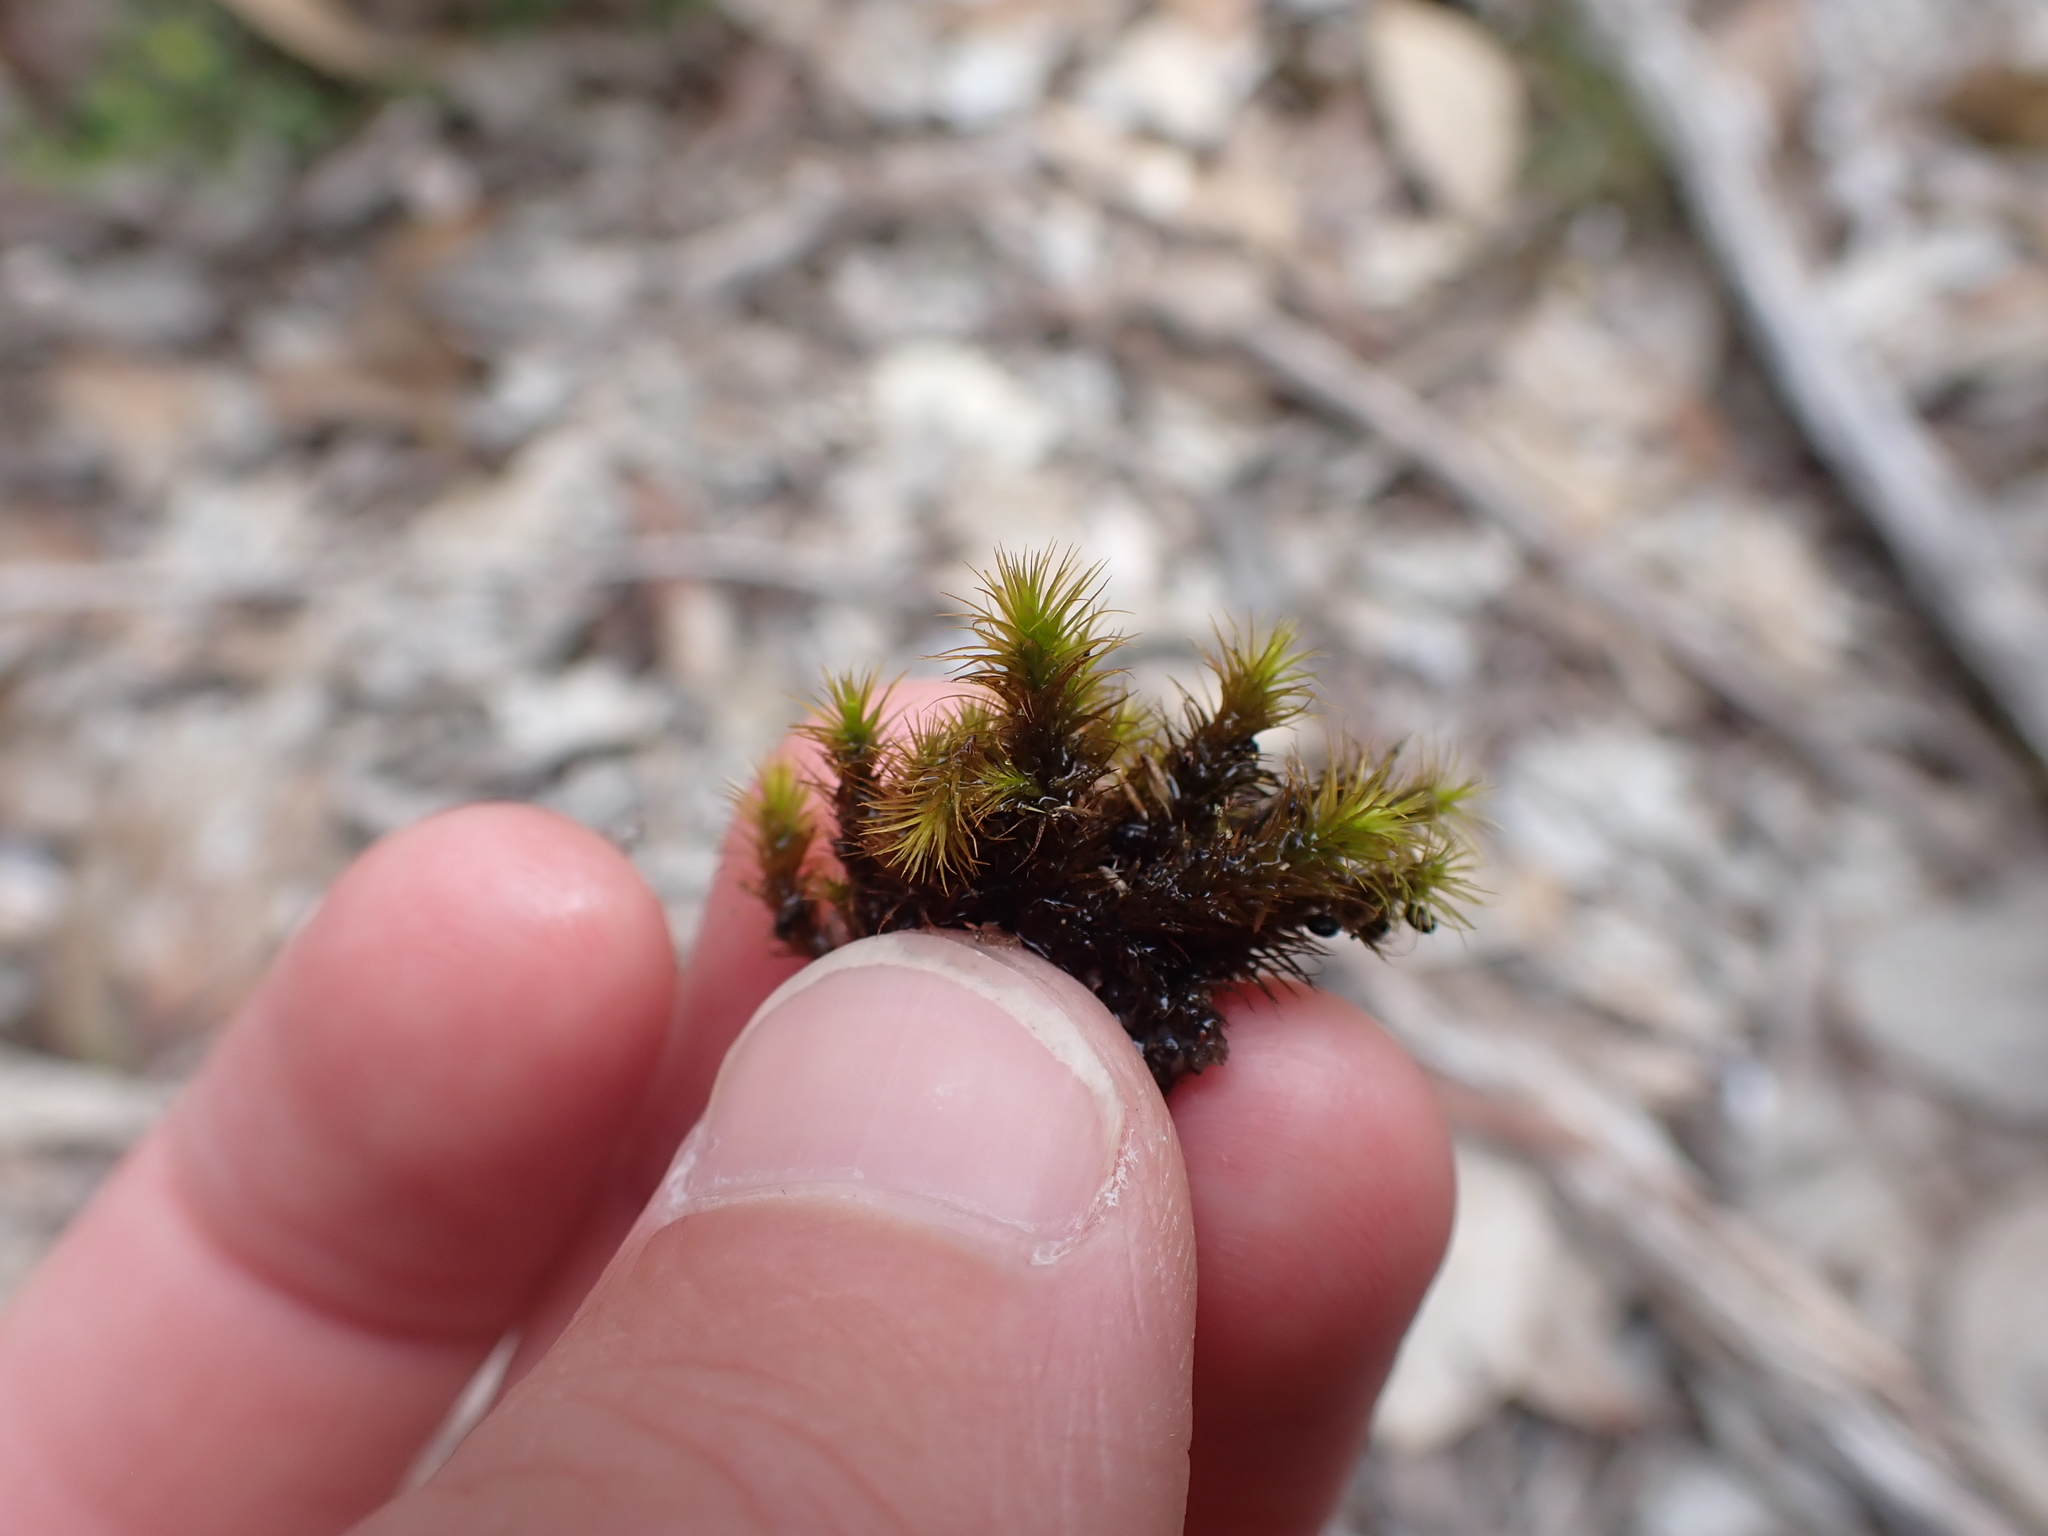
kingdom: Plantae
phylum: Bryophyta
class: Bryopsida
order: Bartramiales
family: Bartramiaceae
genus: Anacolia
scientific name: Anacolia breutelii
